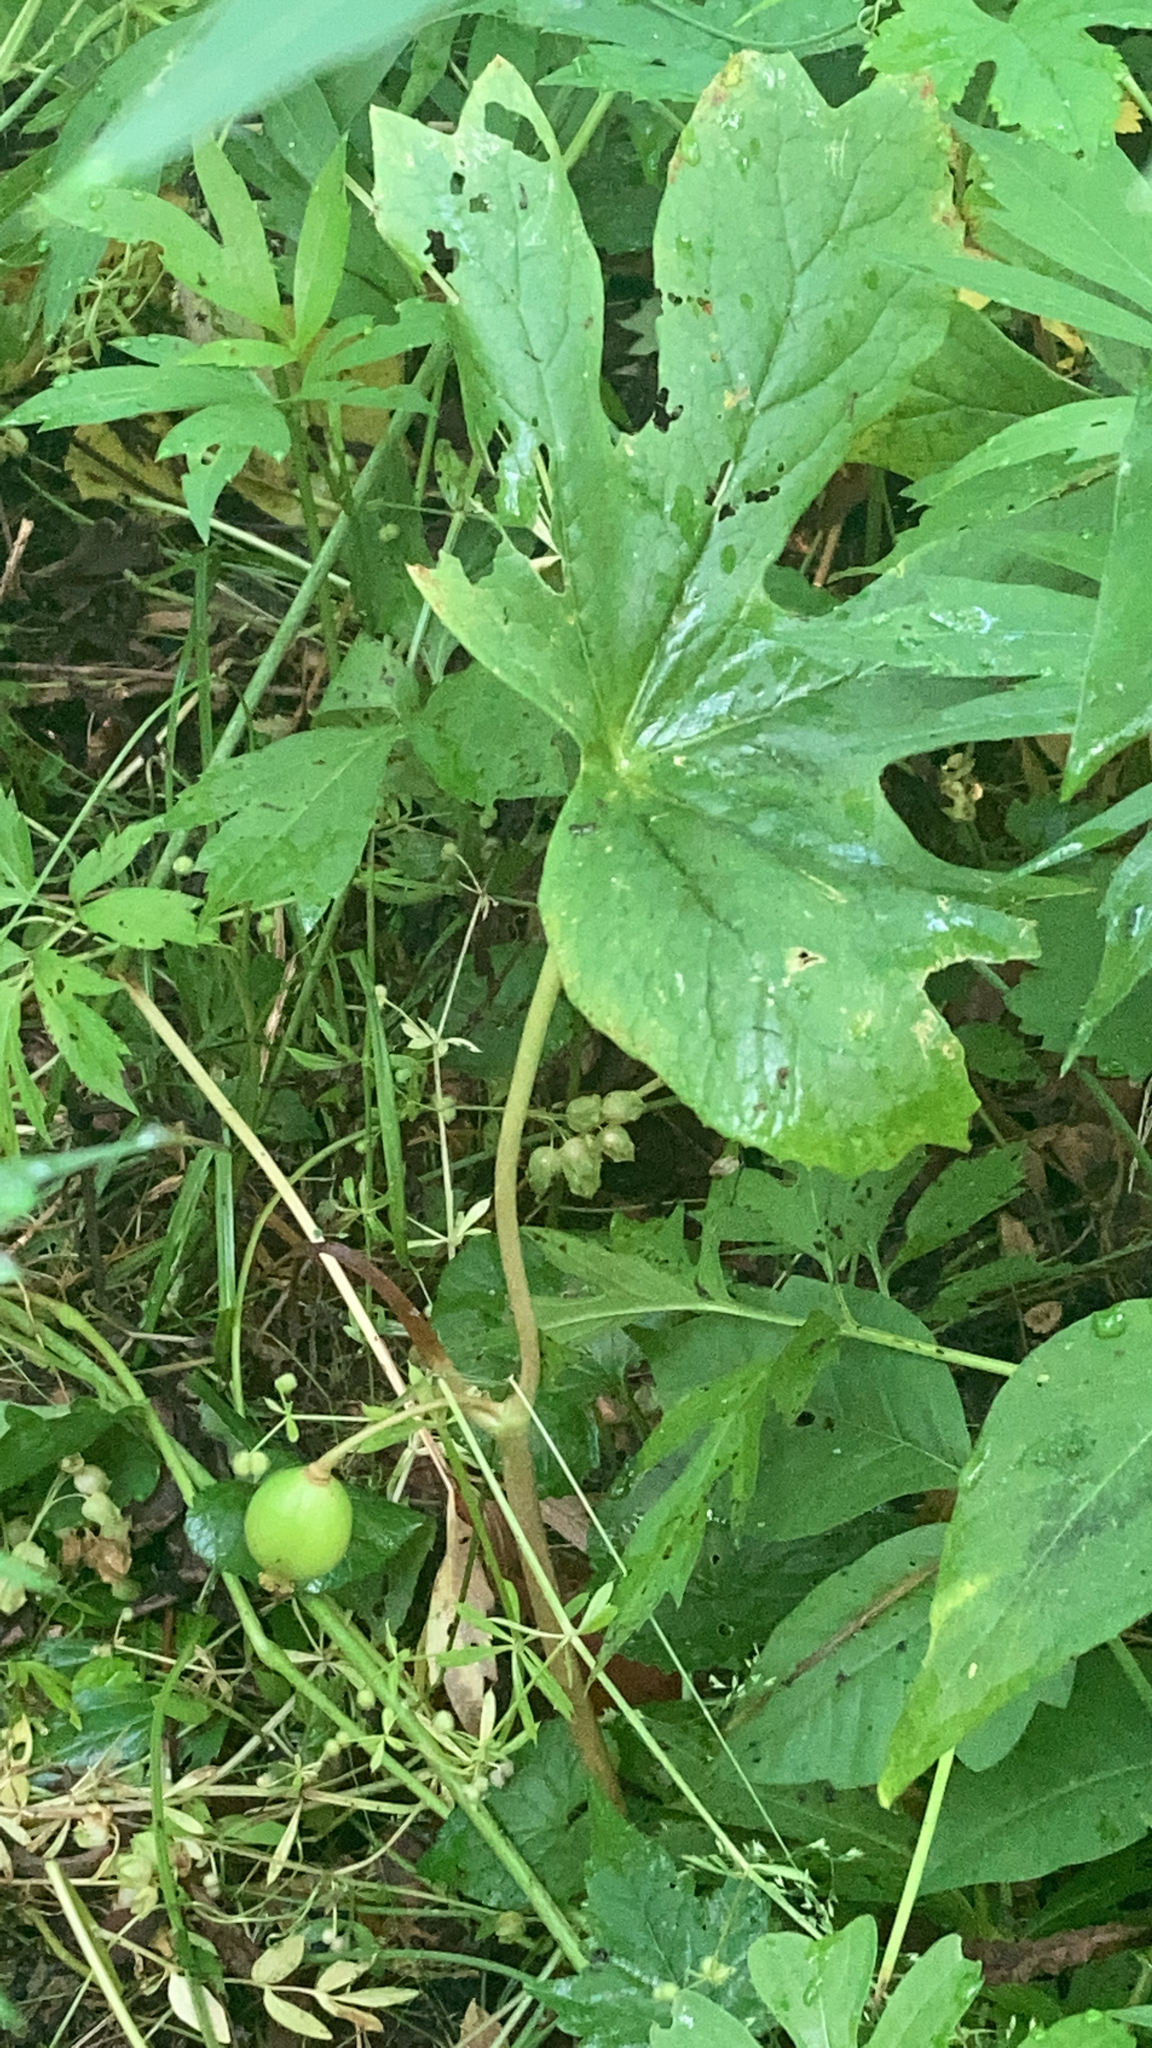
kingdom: Plantae
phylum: Tracheophyta
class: Magnoliopsida
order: Ranunculales
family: Berberidaceae
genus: Podophyllum
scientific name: Podophyllum peltatum
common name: Wild mandrake
